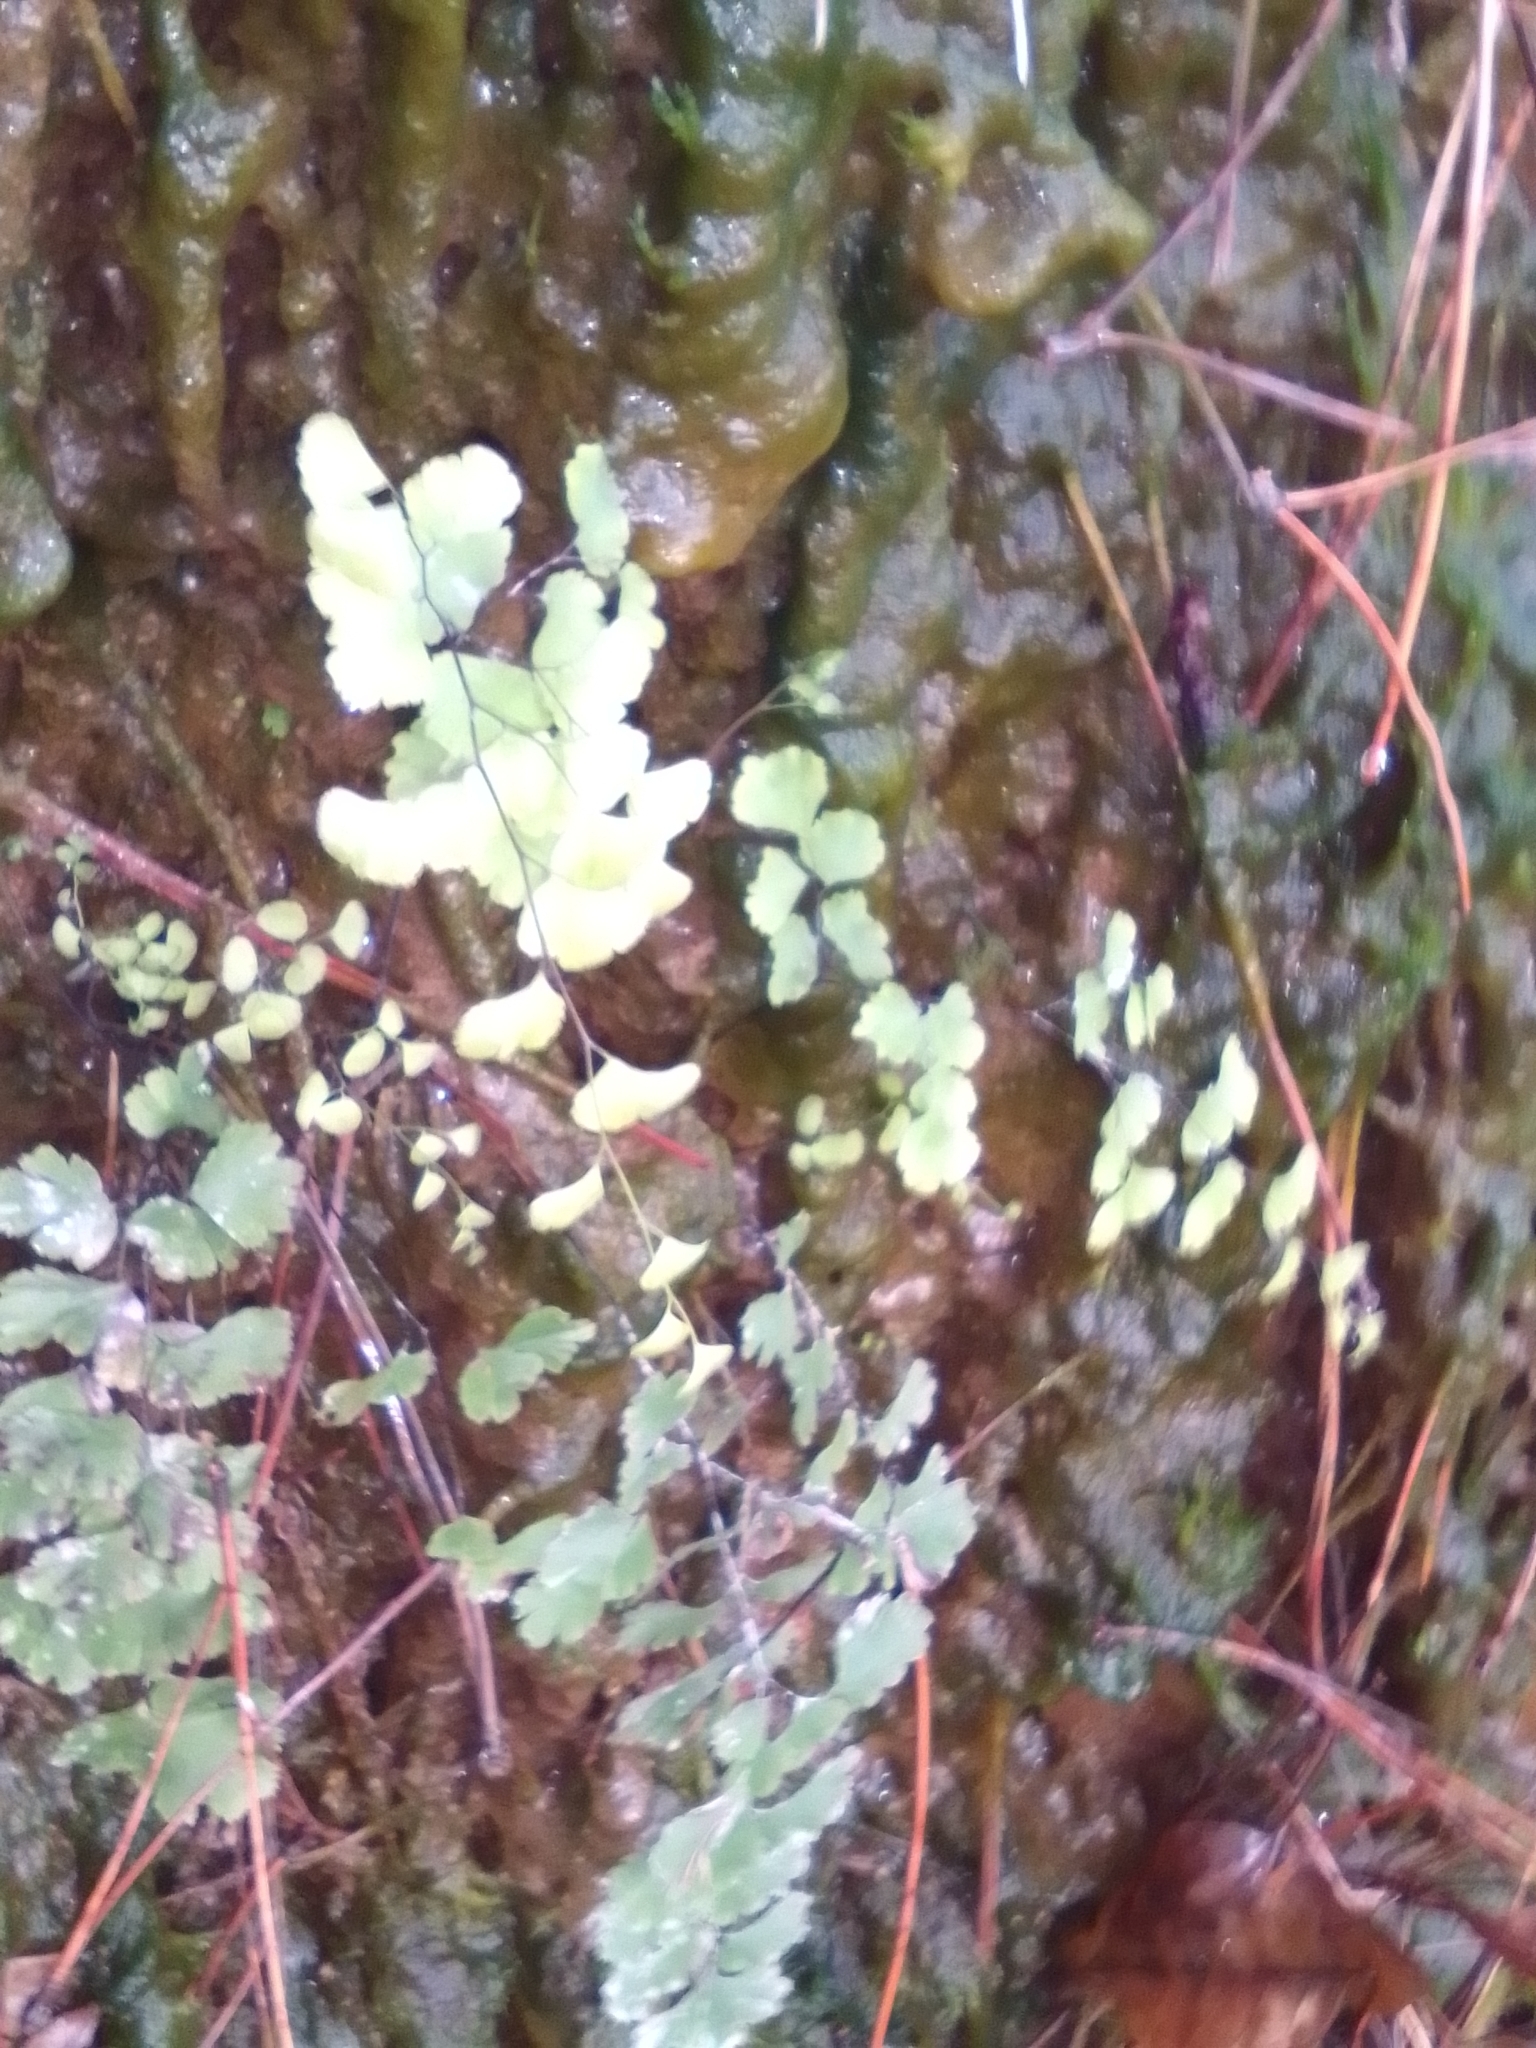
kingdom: Plantae
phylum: Tracheophyta
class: Polypodiopsida
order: Polypodiales
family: Pteridaceae
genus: Adiantum
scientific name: Adiantum capillus-veneris
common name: Maidenhair fern
